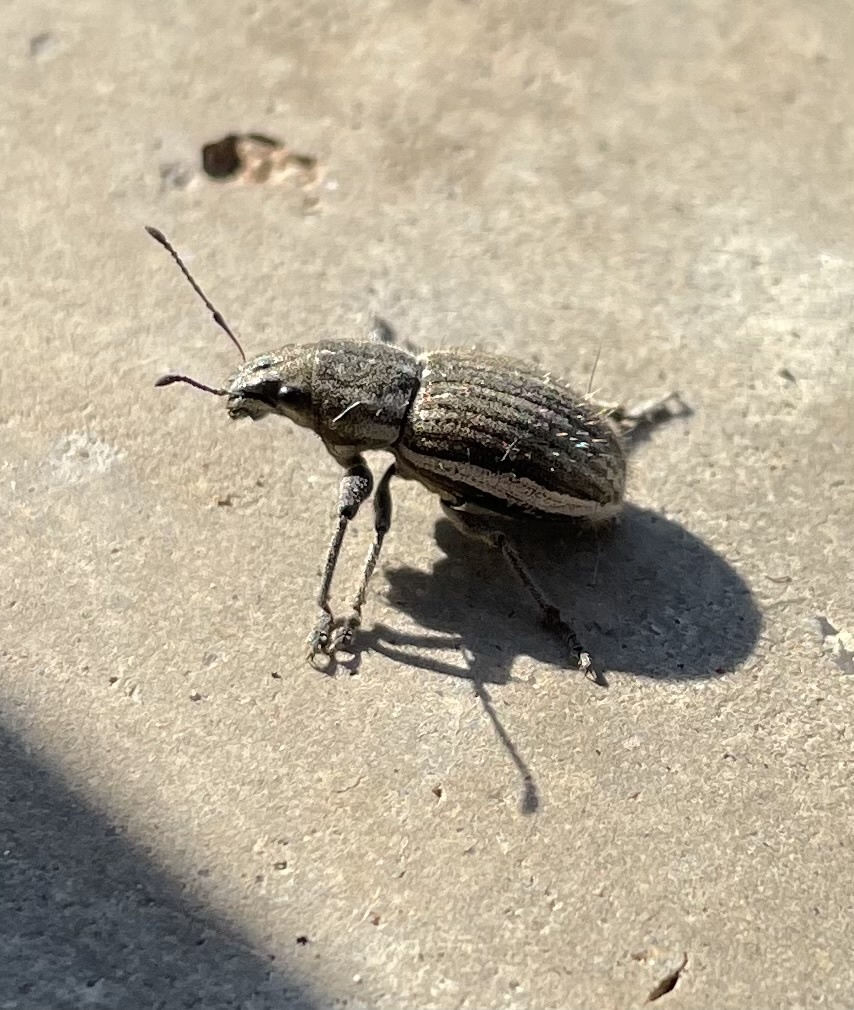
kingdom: Animalia
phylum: Arthropoda
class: Insecta
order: Coleoptera
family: Curculionidae
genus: Naupactus
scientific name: Naupactus leucoloma
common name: Whitefringed beetle
